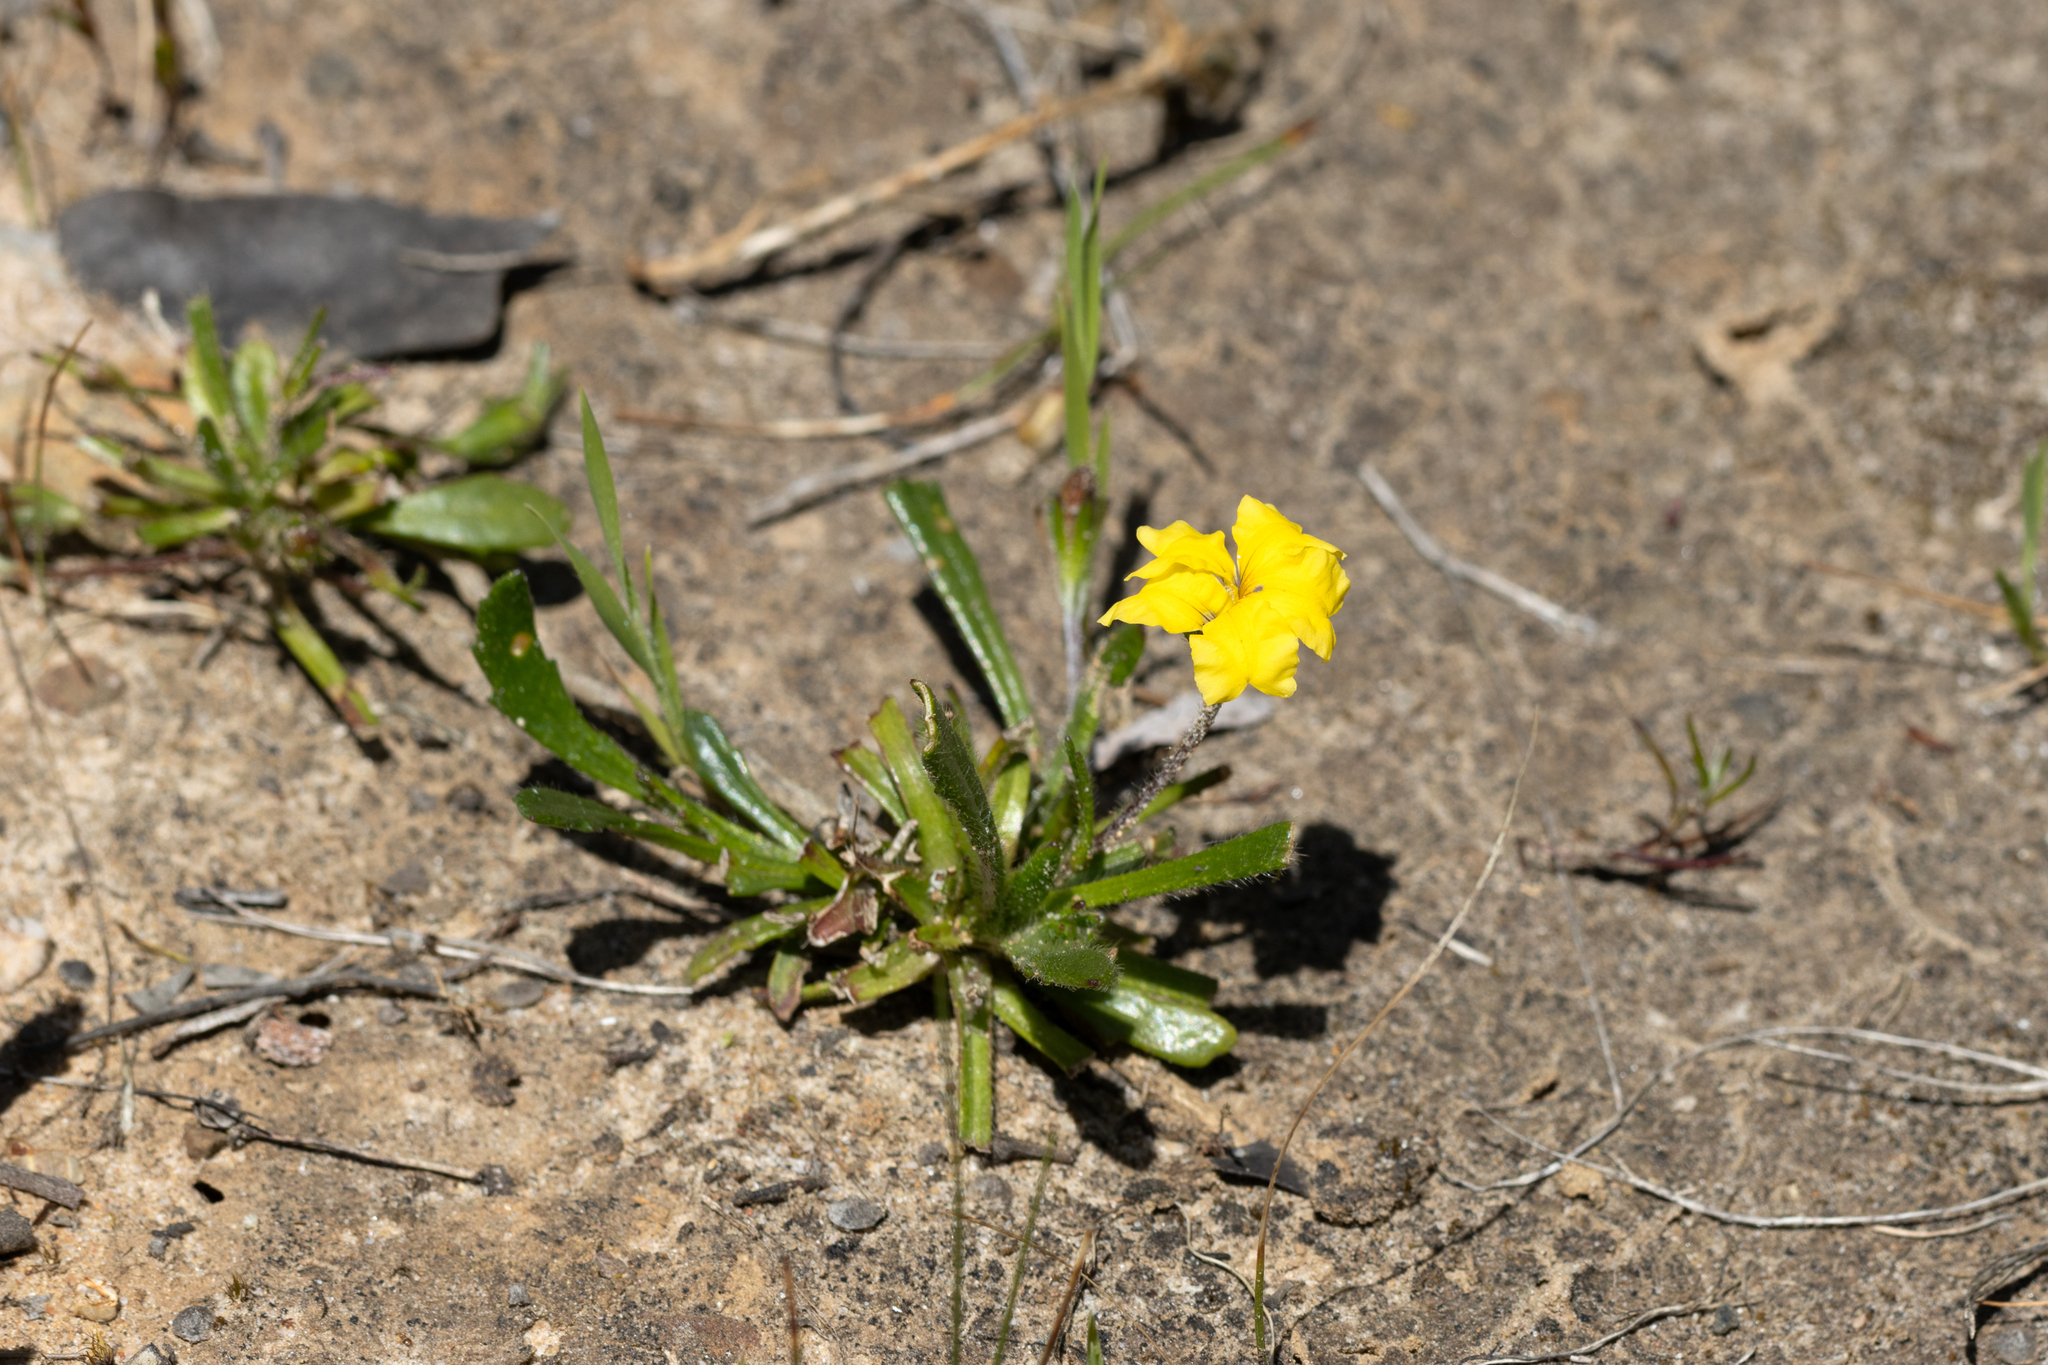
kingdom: Plantae
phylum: Tracheophyta
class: Magnoliopsida
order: Asterales
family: Goodeniaceae
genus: Goodenia
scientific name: Goodenia blackiana
